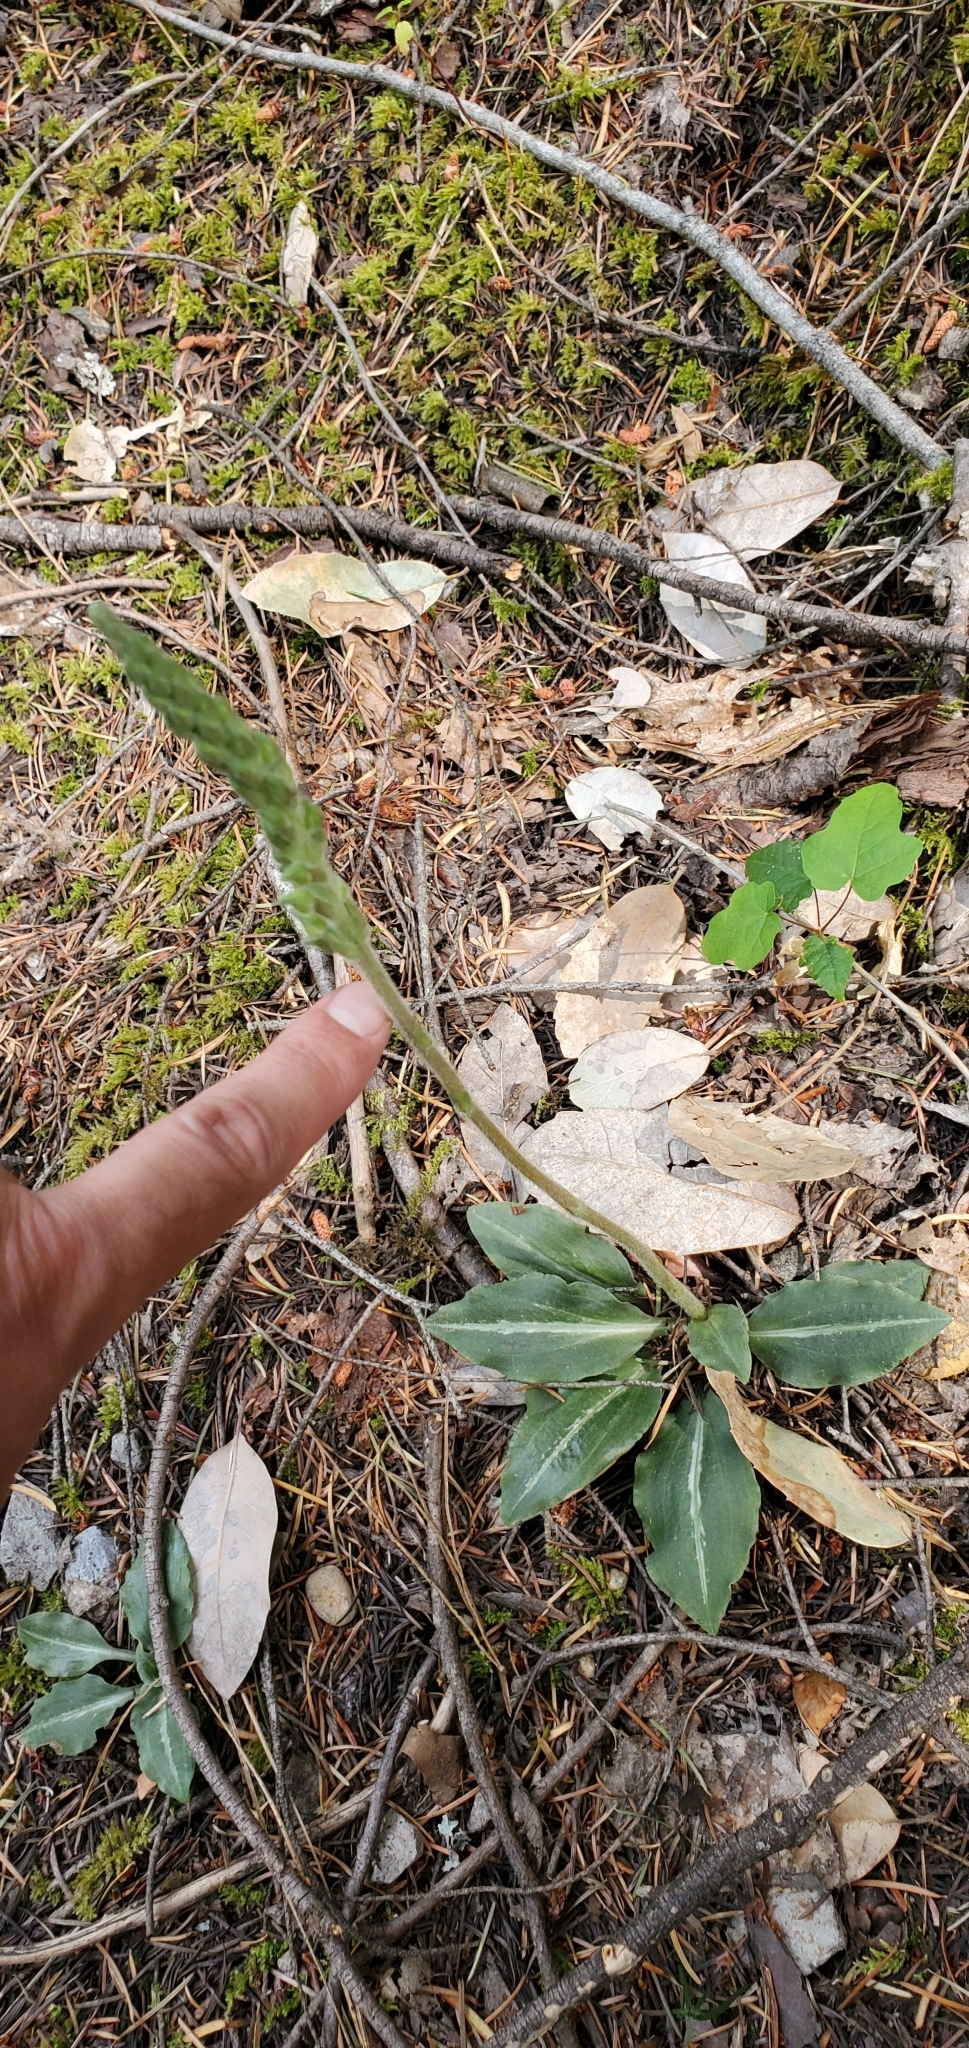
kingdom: Plantae
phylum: Tracheophyta
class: Liliopsida
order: Asparagales
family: Orchidaceae
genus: Goodyera
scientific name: Goodyera oblongifolia
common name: Giant rattlesnake-plantain
